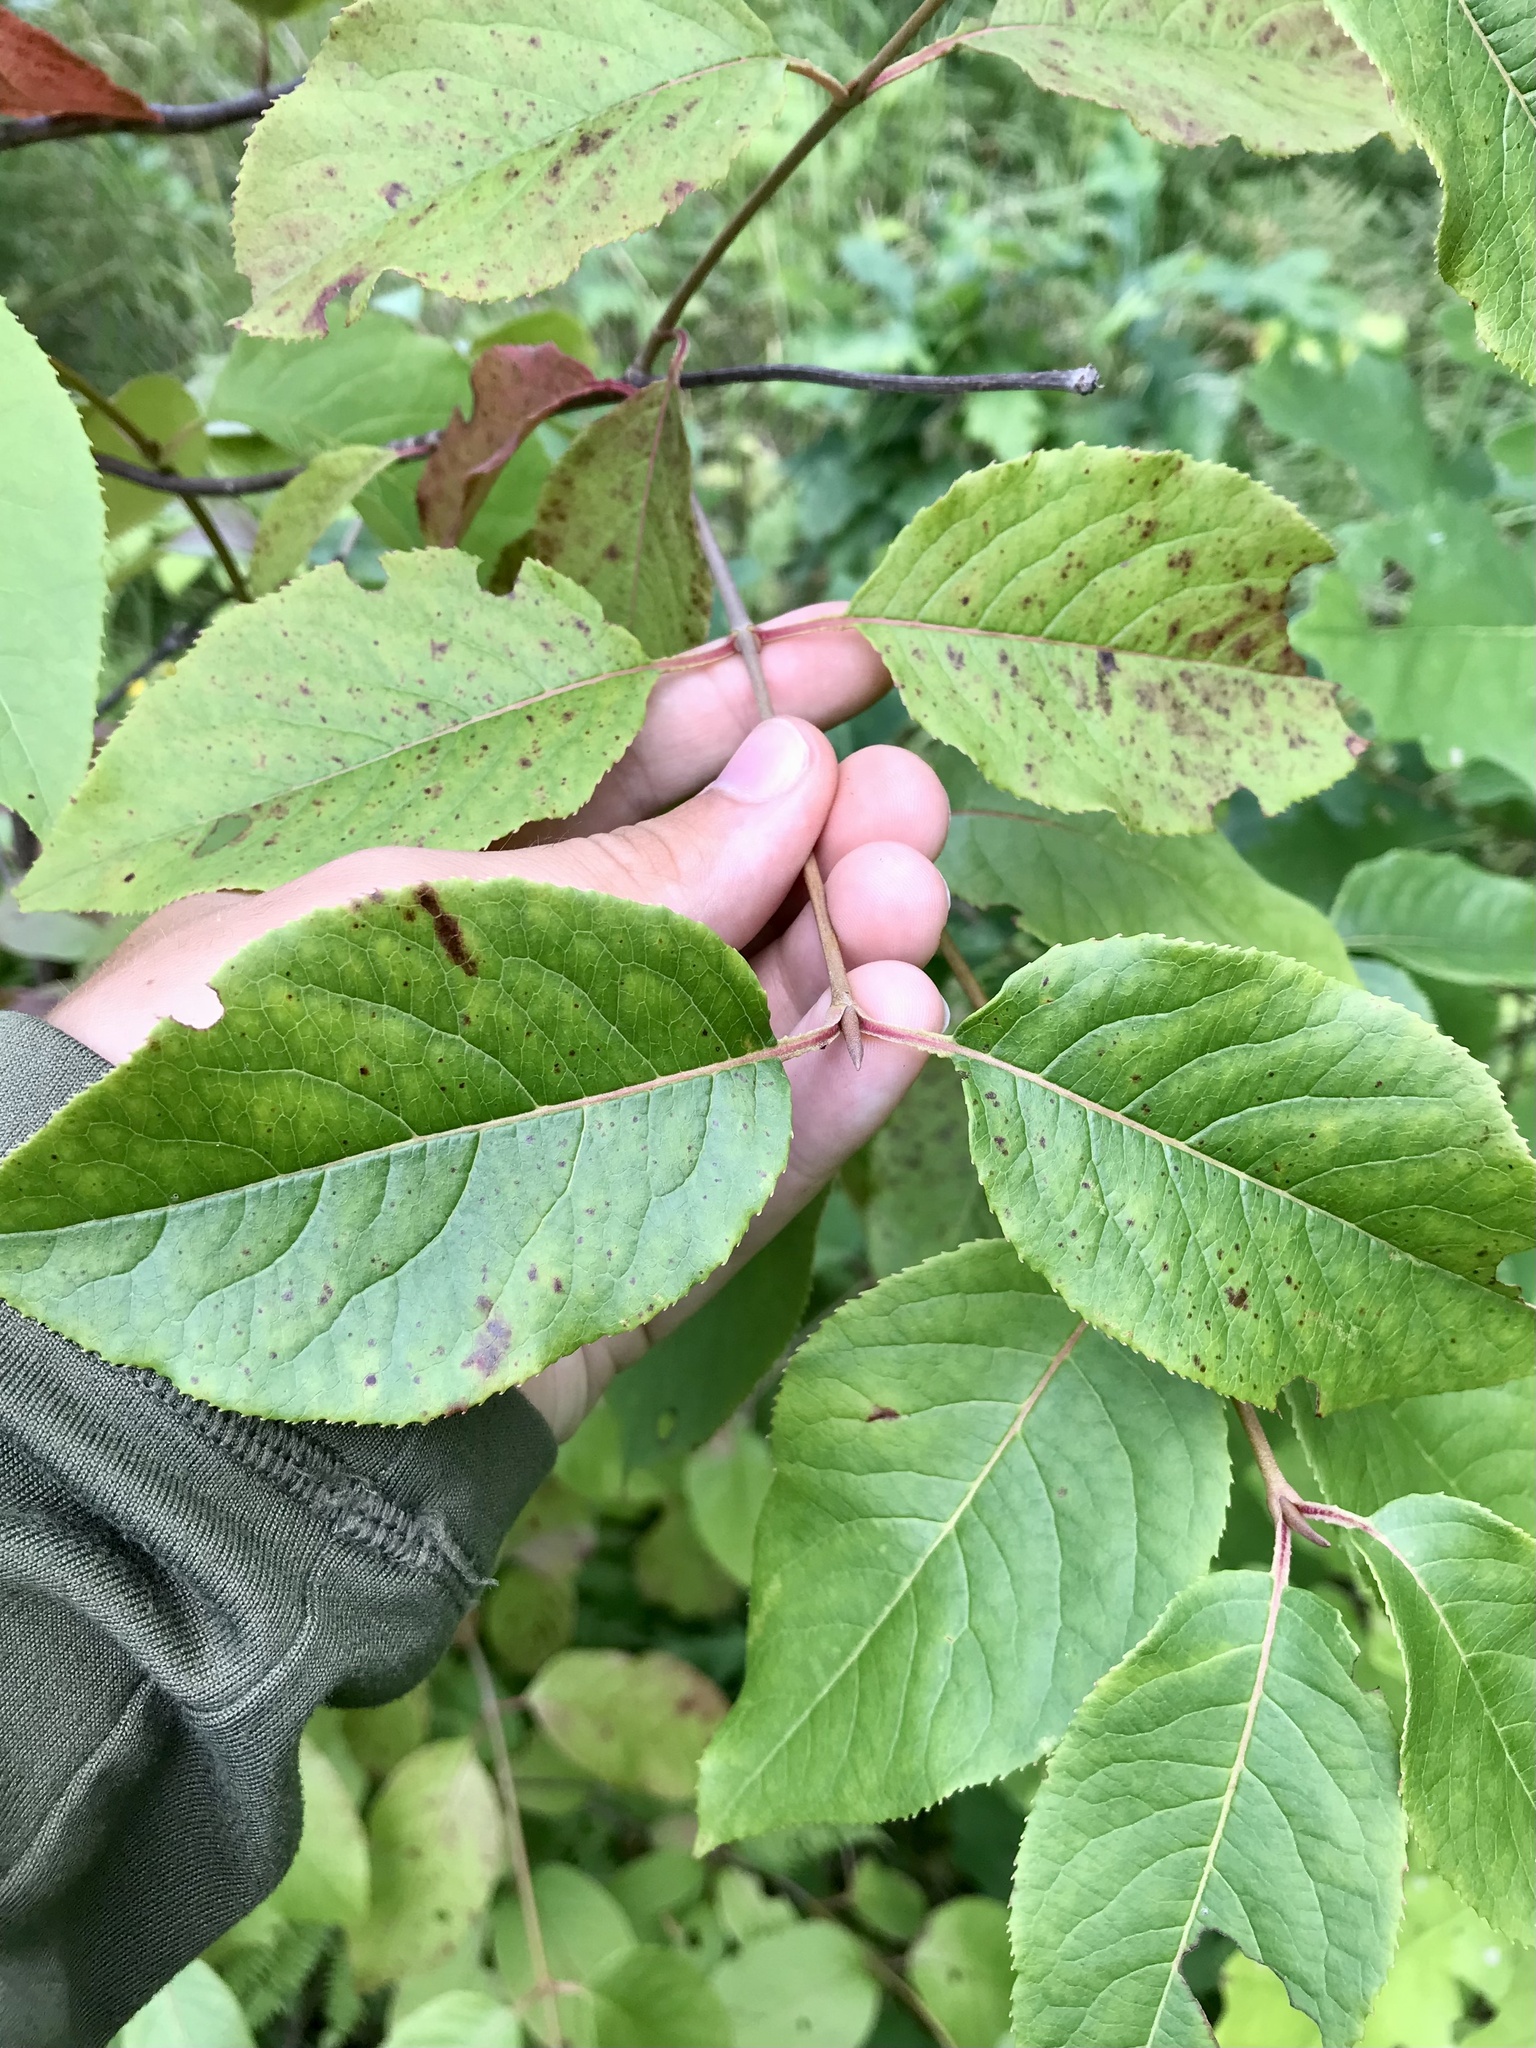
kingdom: Plantae
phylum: Tracheophyta
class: Magnoliopsida
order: Dipsacales
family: Viburnaceae
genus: Viburnum
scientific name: Viburnum lentago
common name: Black haw
